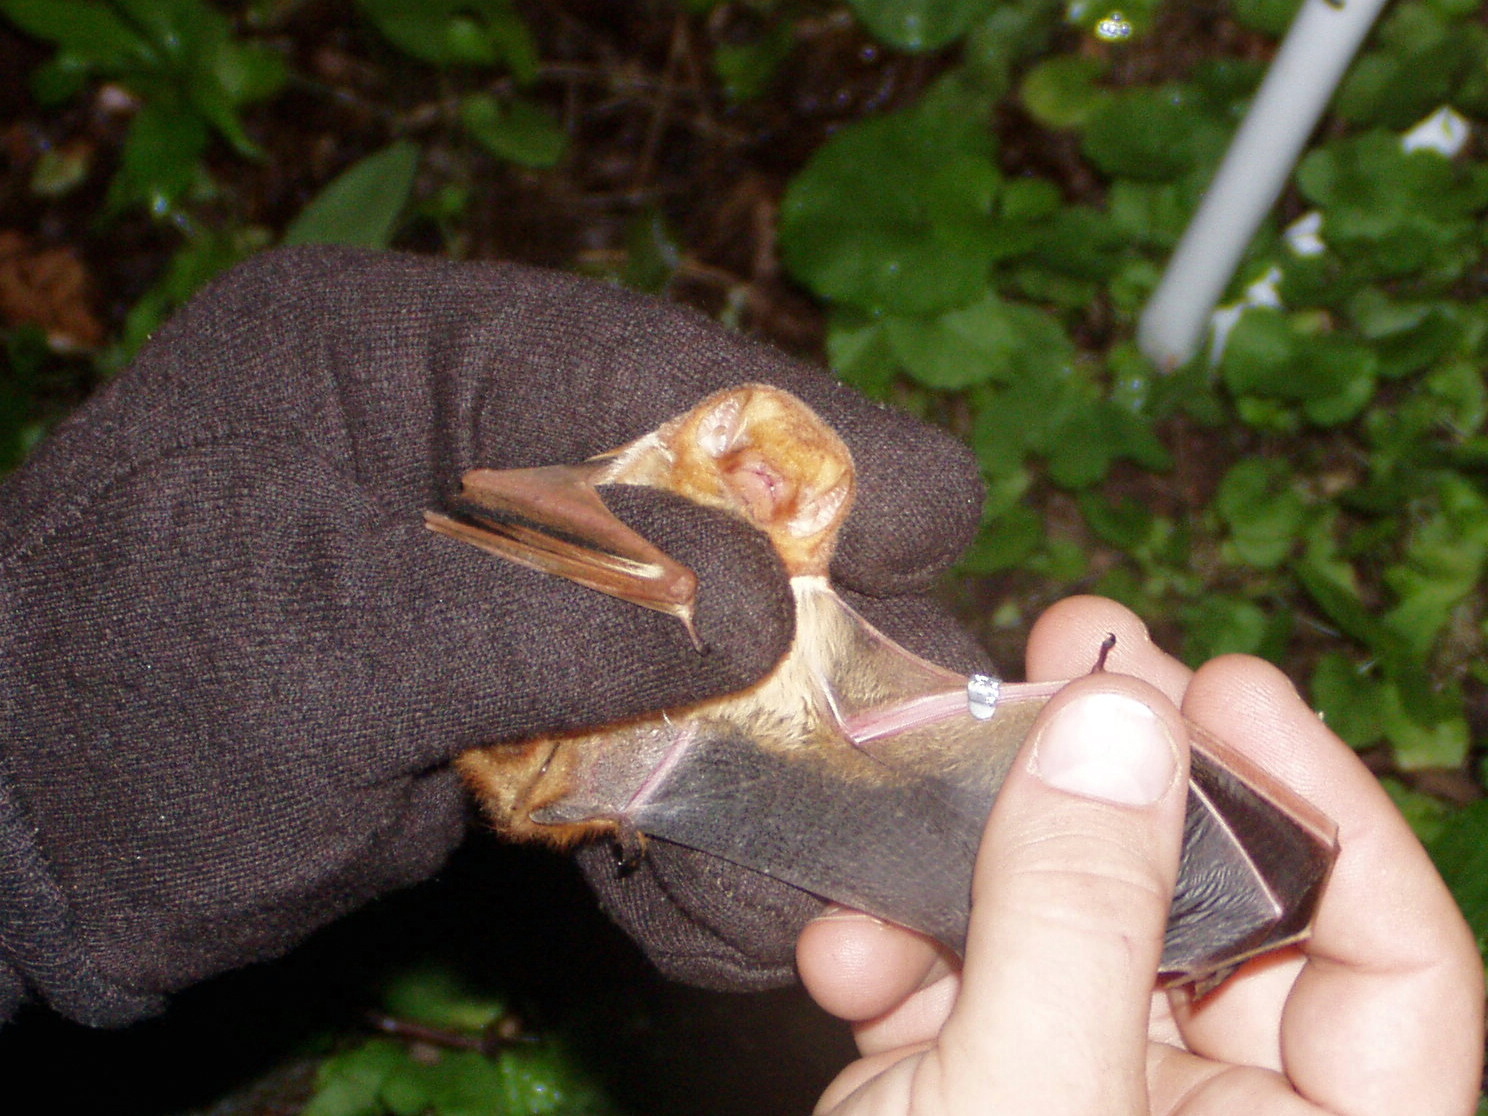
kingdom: Animalia
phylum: Chordata
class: Mammalia
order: Chiroptera
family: Vespertilionidae
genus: Lasiurus
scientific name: Lasiurus borealis
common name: Eastern red bat
